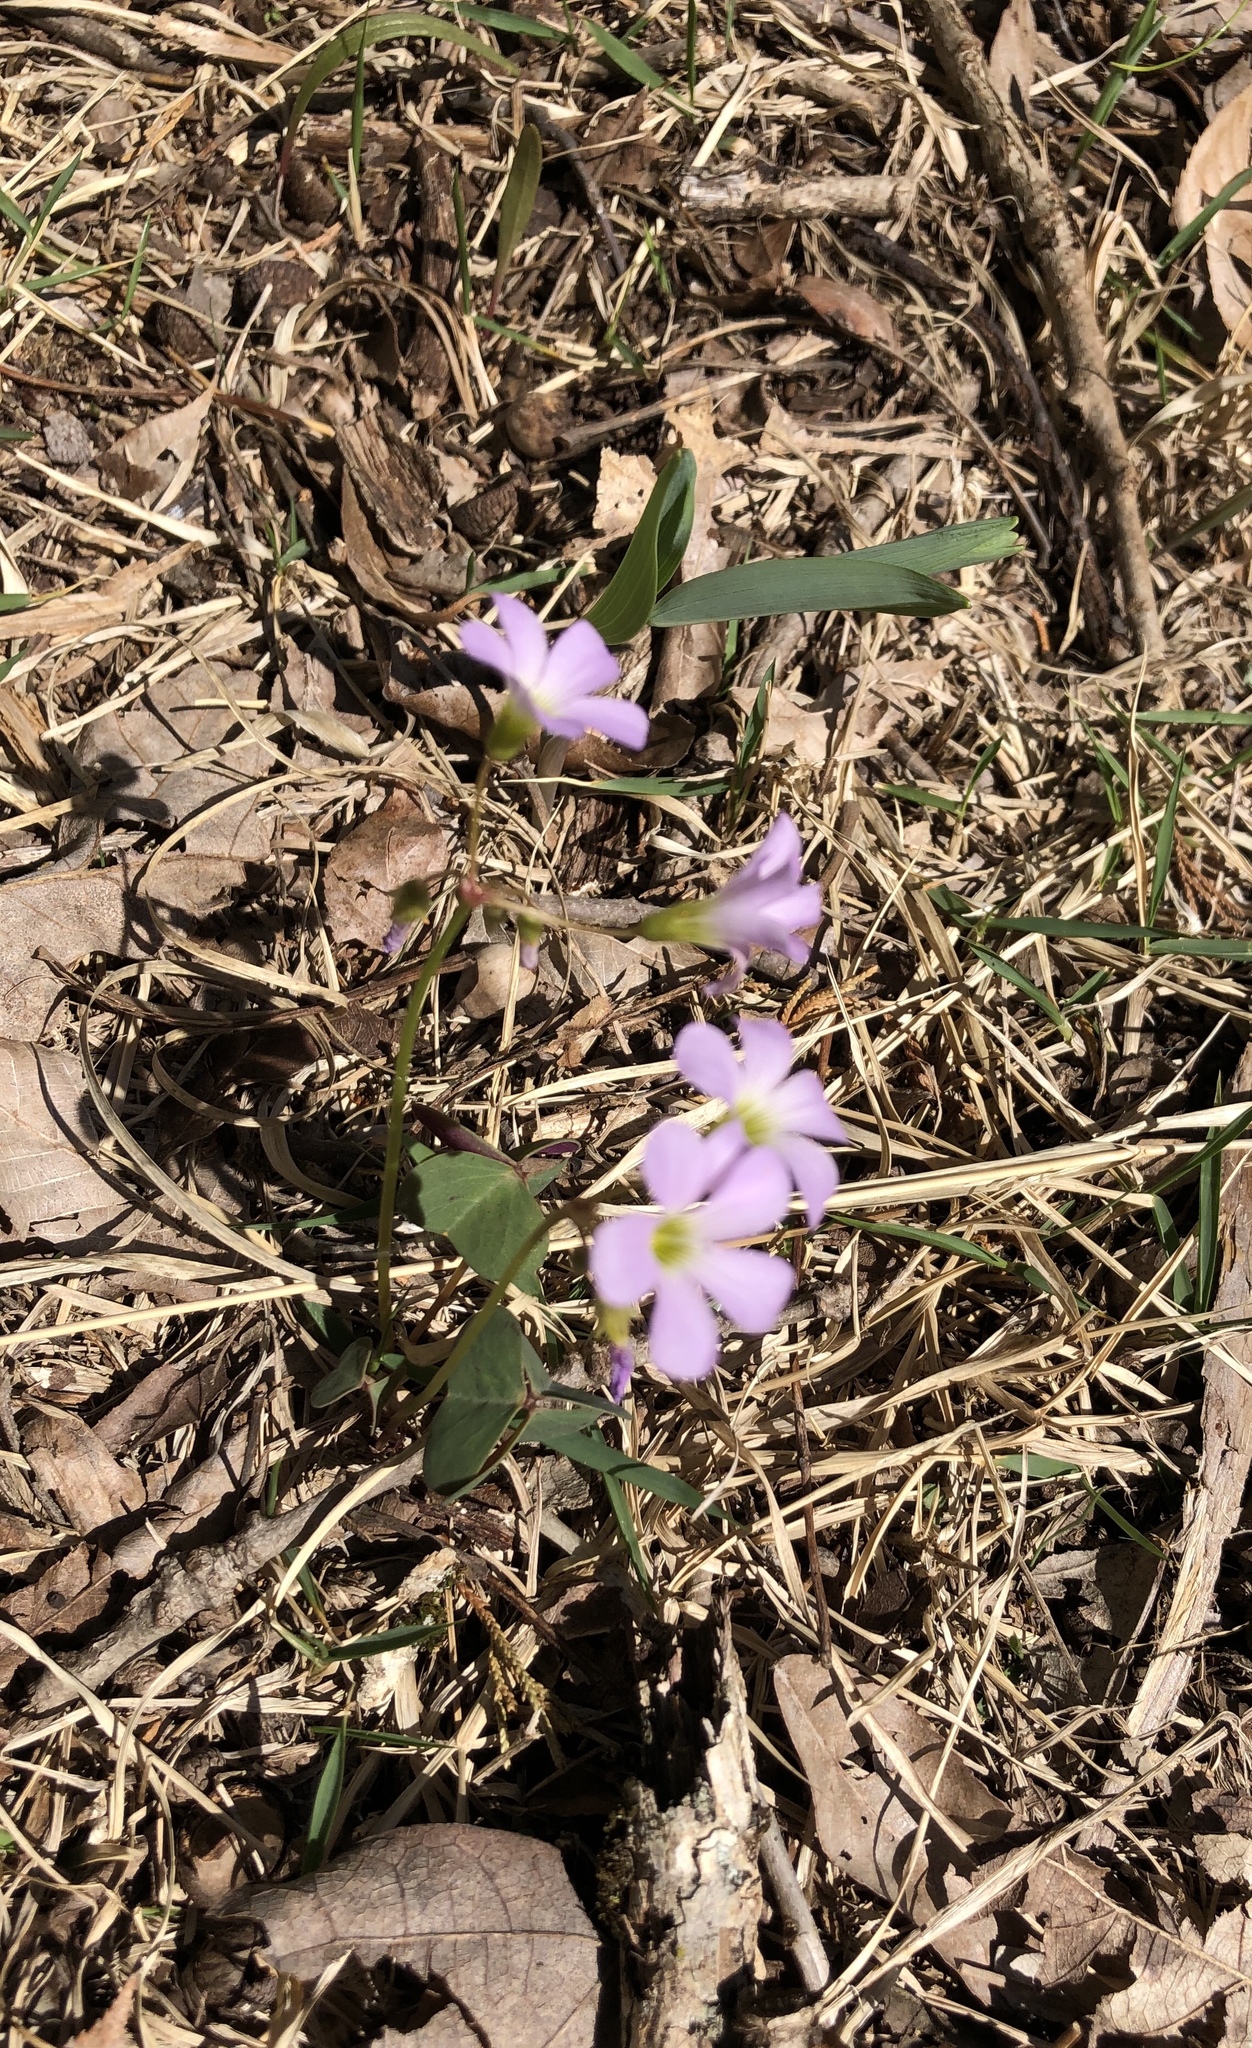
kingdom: Plantae
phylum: Tracheophyta
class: Magnoliopsida
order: Oxalidales
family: Oxalidaceae
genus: Oxalis
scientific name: Oxalis violacea
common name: Violet wood-sorrel
